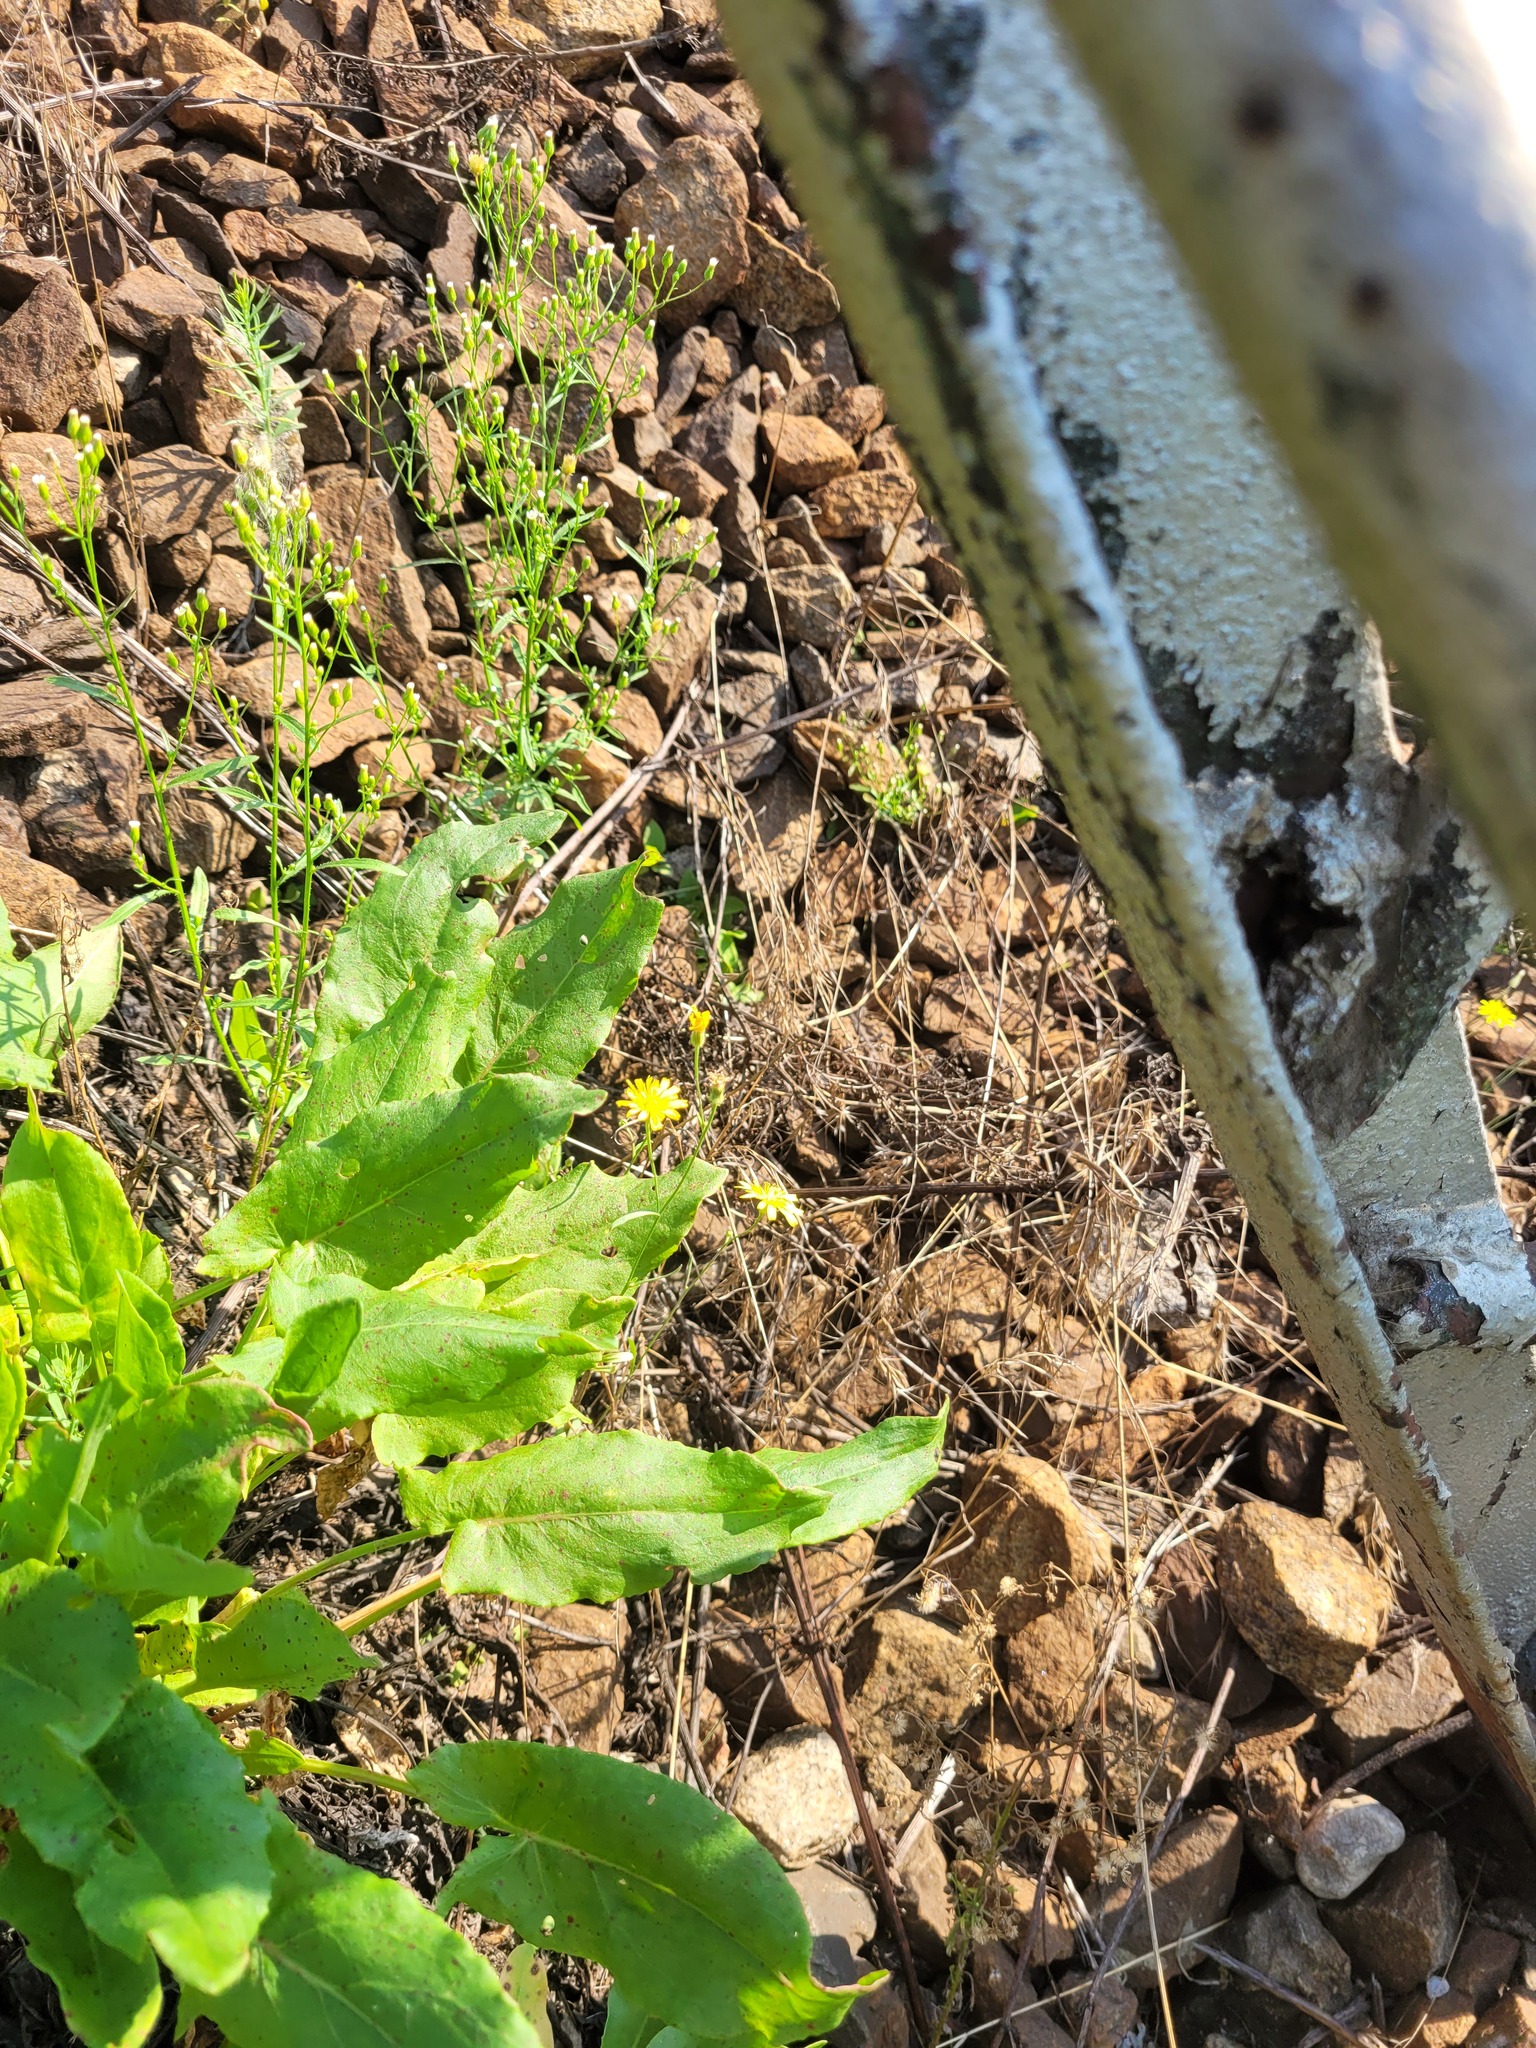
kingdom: Plantae
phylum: Tracheophyta
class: Magnoliopsida
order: Asterales
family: Asteraceae
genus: Crepis
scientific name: Crepis tectorum
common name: Narrow-leaved hawk's-beard
